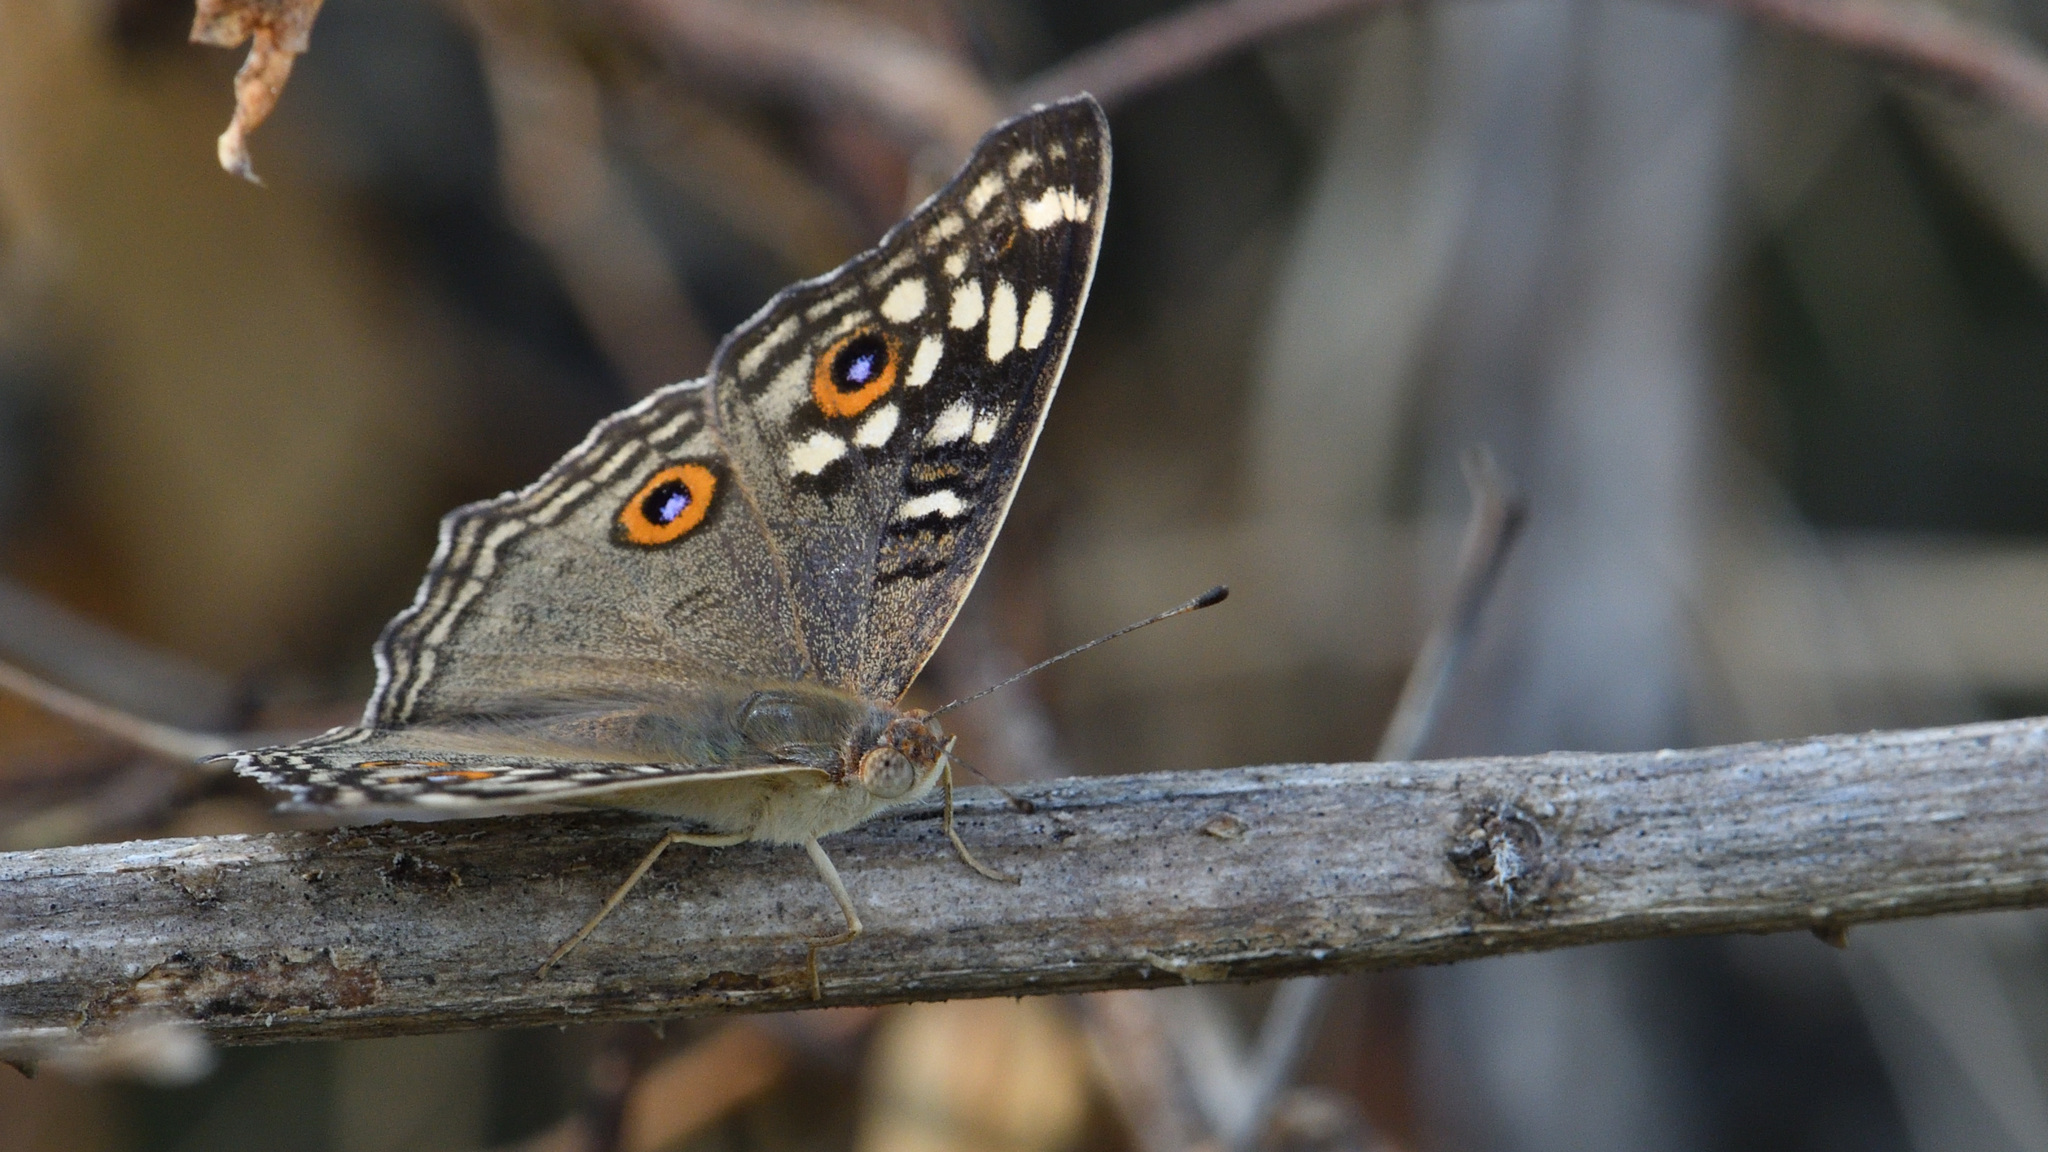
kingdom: Animalia
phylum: Arthropoda
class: Insecta
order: Lepidoptera
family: Nymphalidae
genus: Junonia
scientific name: Junonia lemonias
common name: Lemon pansy
